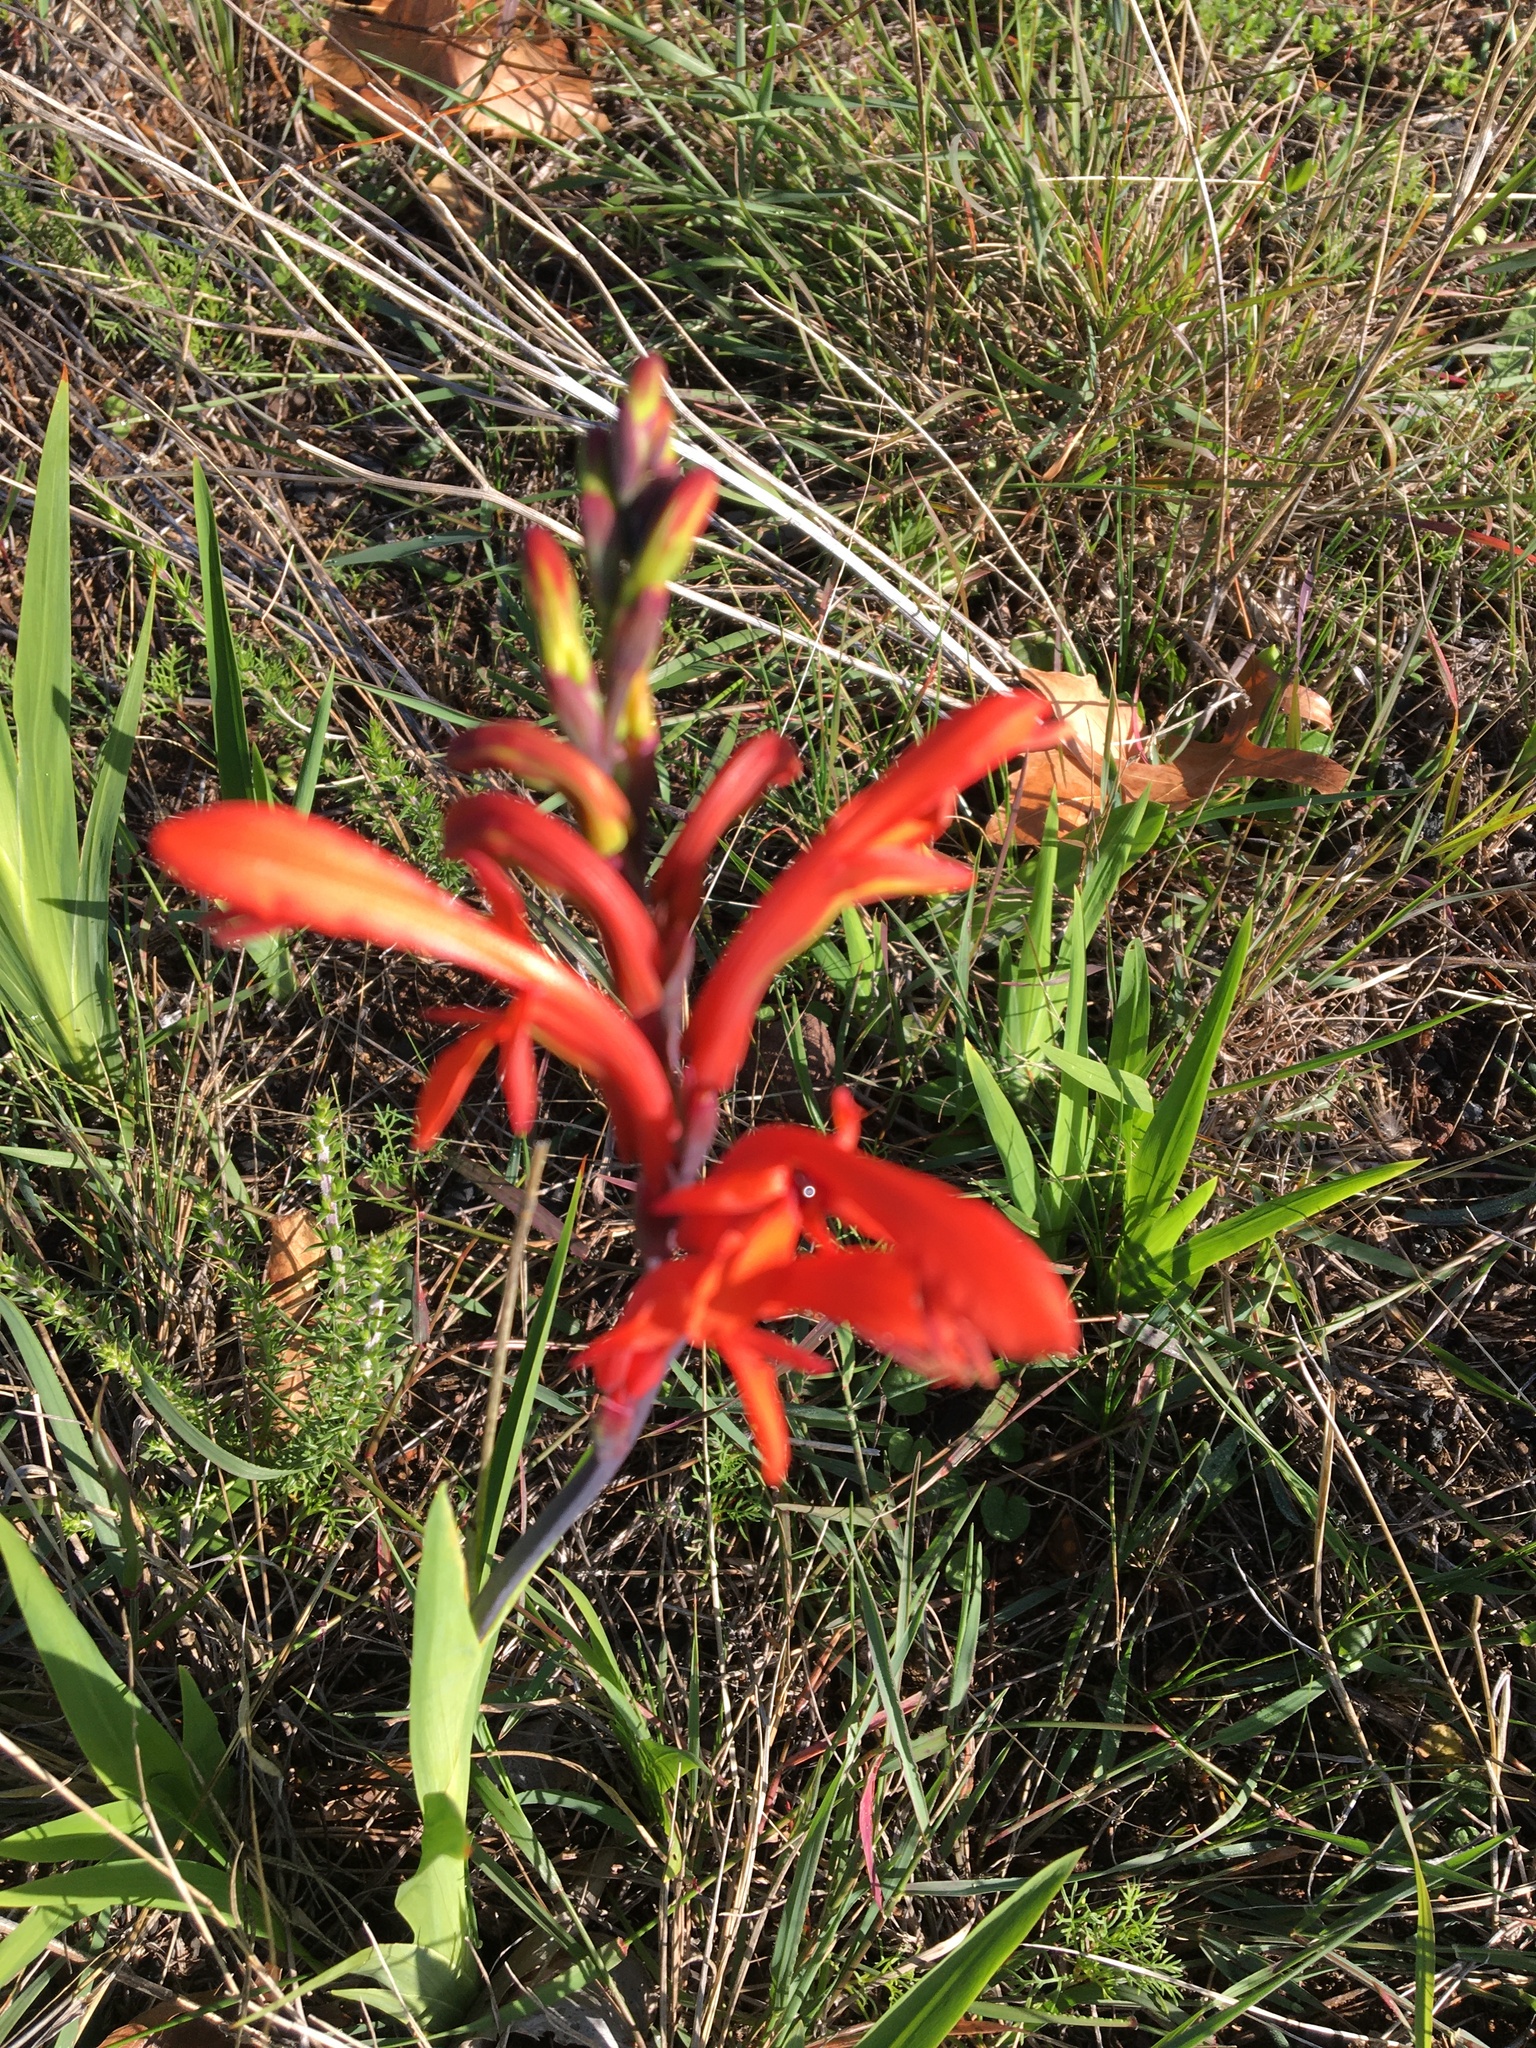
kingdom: Plantae
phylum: Tracheophyta
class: Liliopsida
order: Asparagales
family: Iridaceae
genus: Chasmanthe
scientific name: Chasmanthe aethiopica
